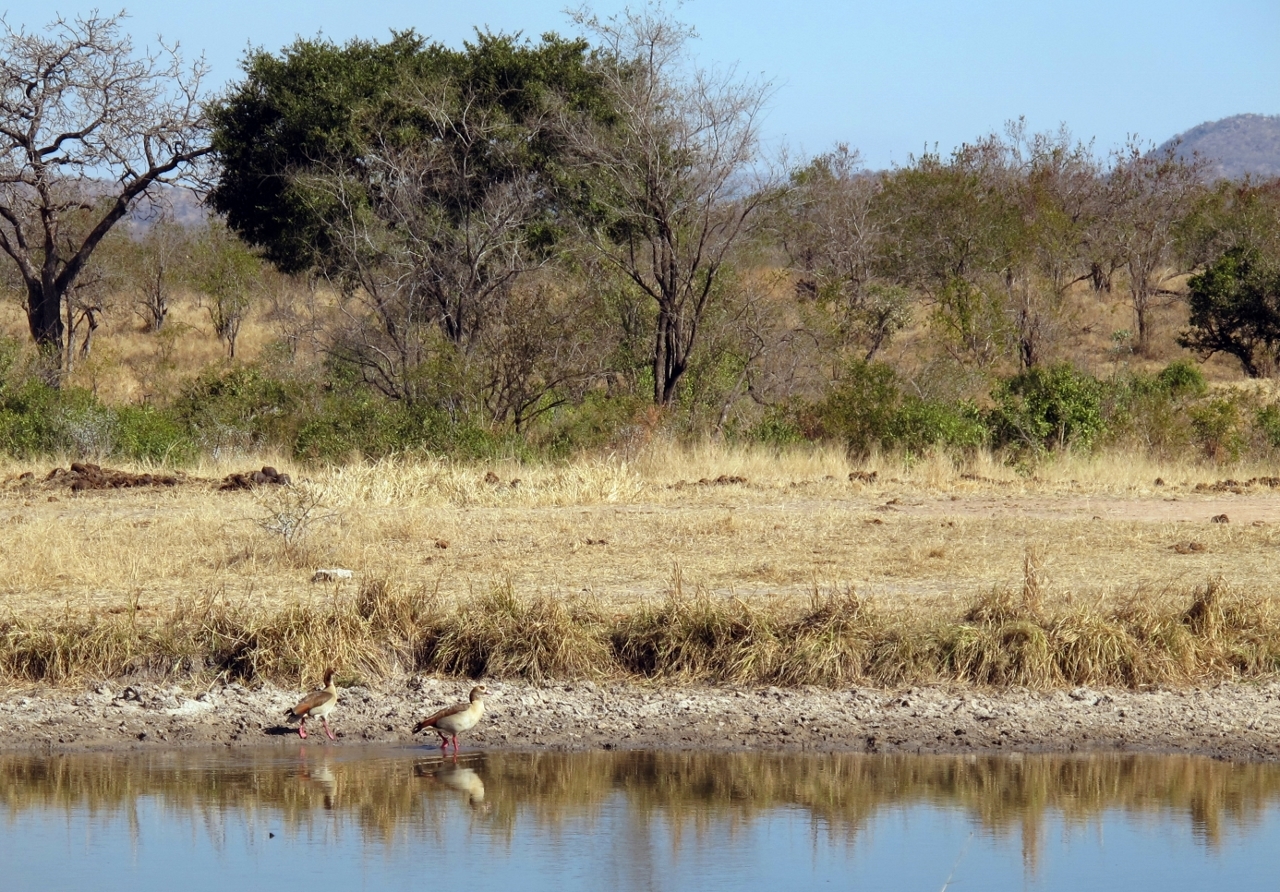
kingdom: Animalia
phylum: Chordata
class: Aves
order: Anseriformes
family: Anatidae
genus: Alopochen
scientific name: Alopochen aegyptiaca
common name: Egyptian goose
